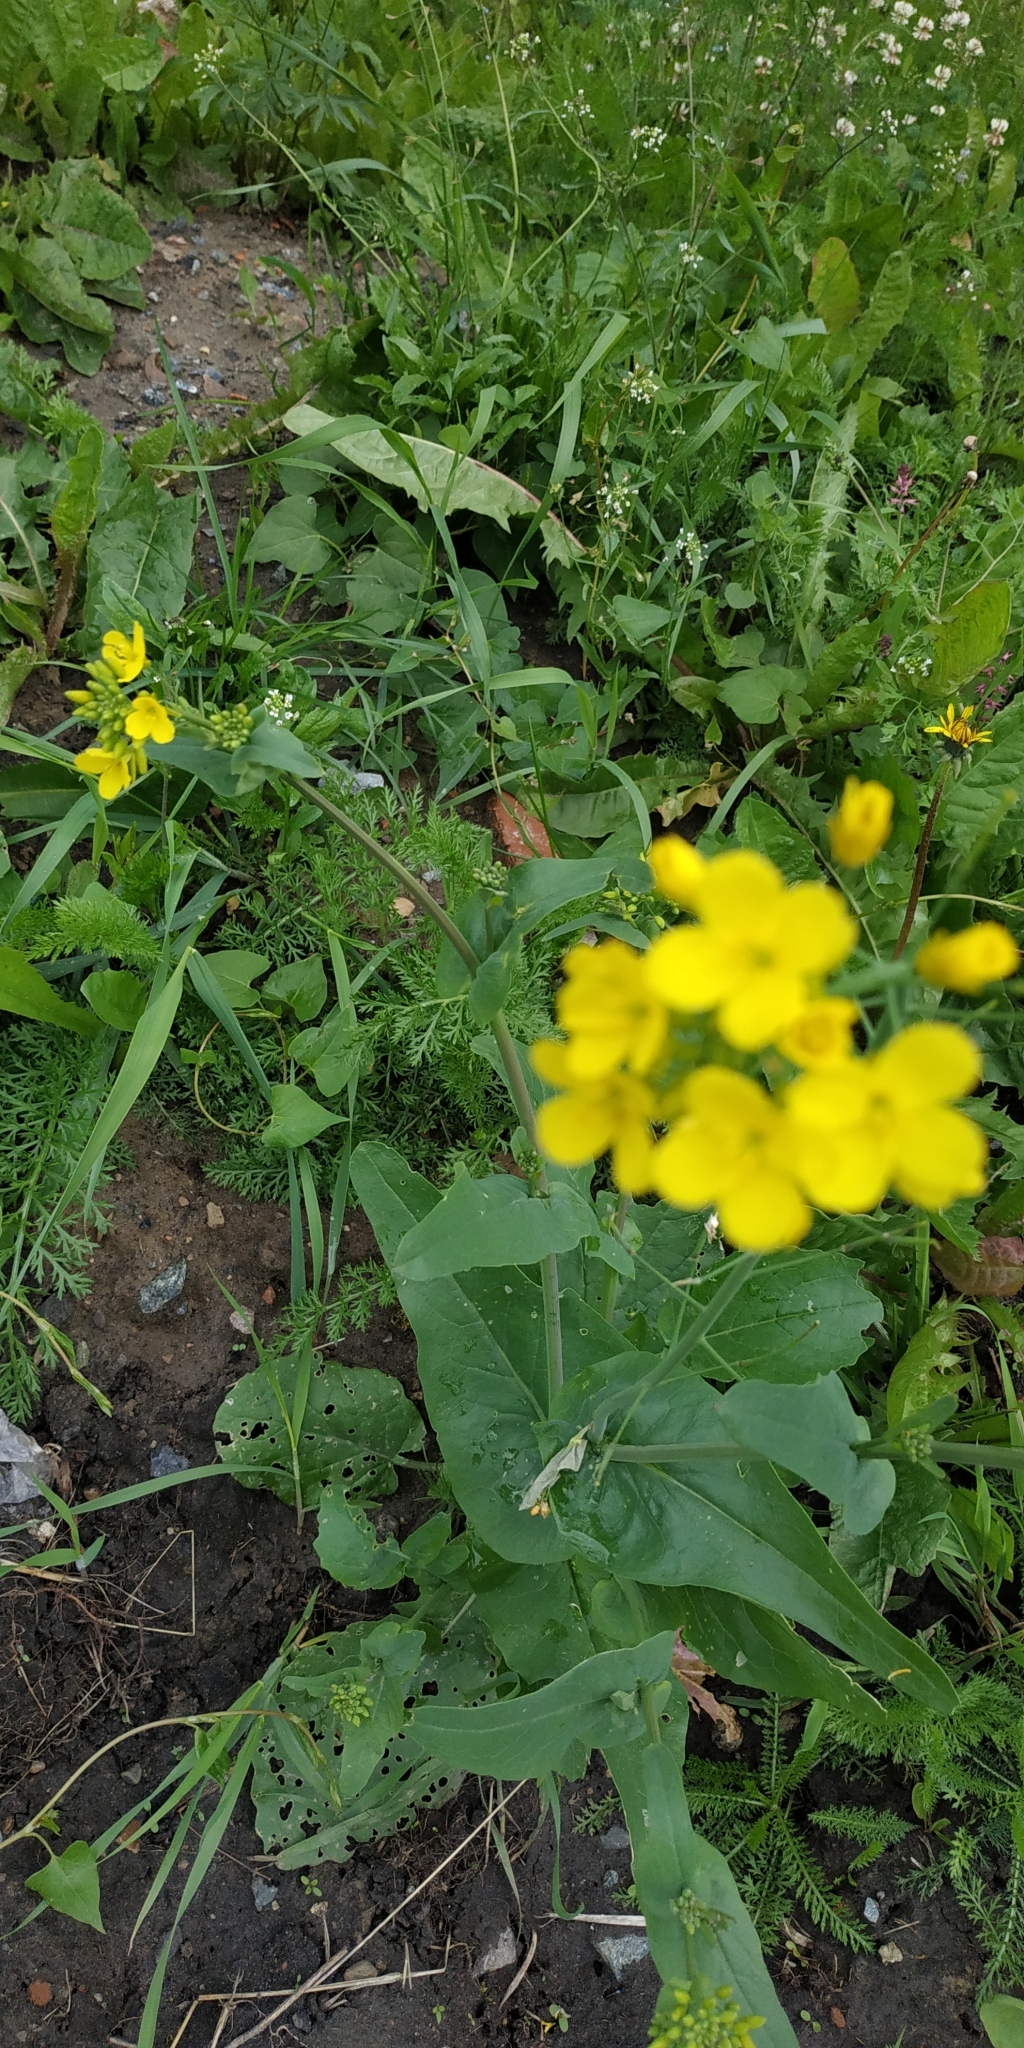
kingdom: Plantae
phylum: Tracheophyta
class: Magnoliopsida
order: Brassicales
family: Brassicaceae
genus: Brassica
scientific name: Brassica rapa
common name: Field mustard
